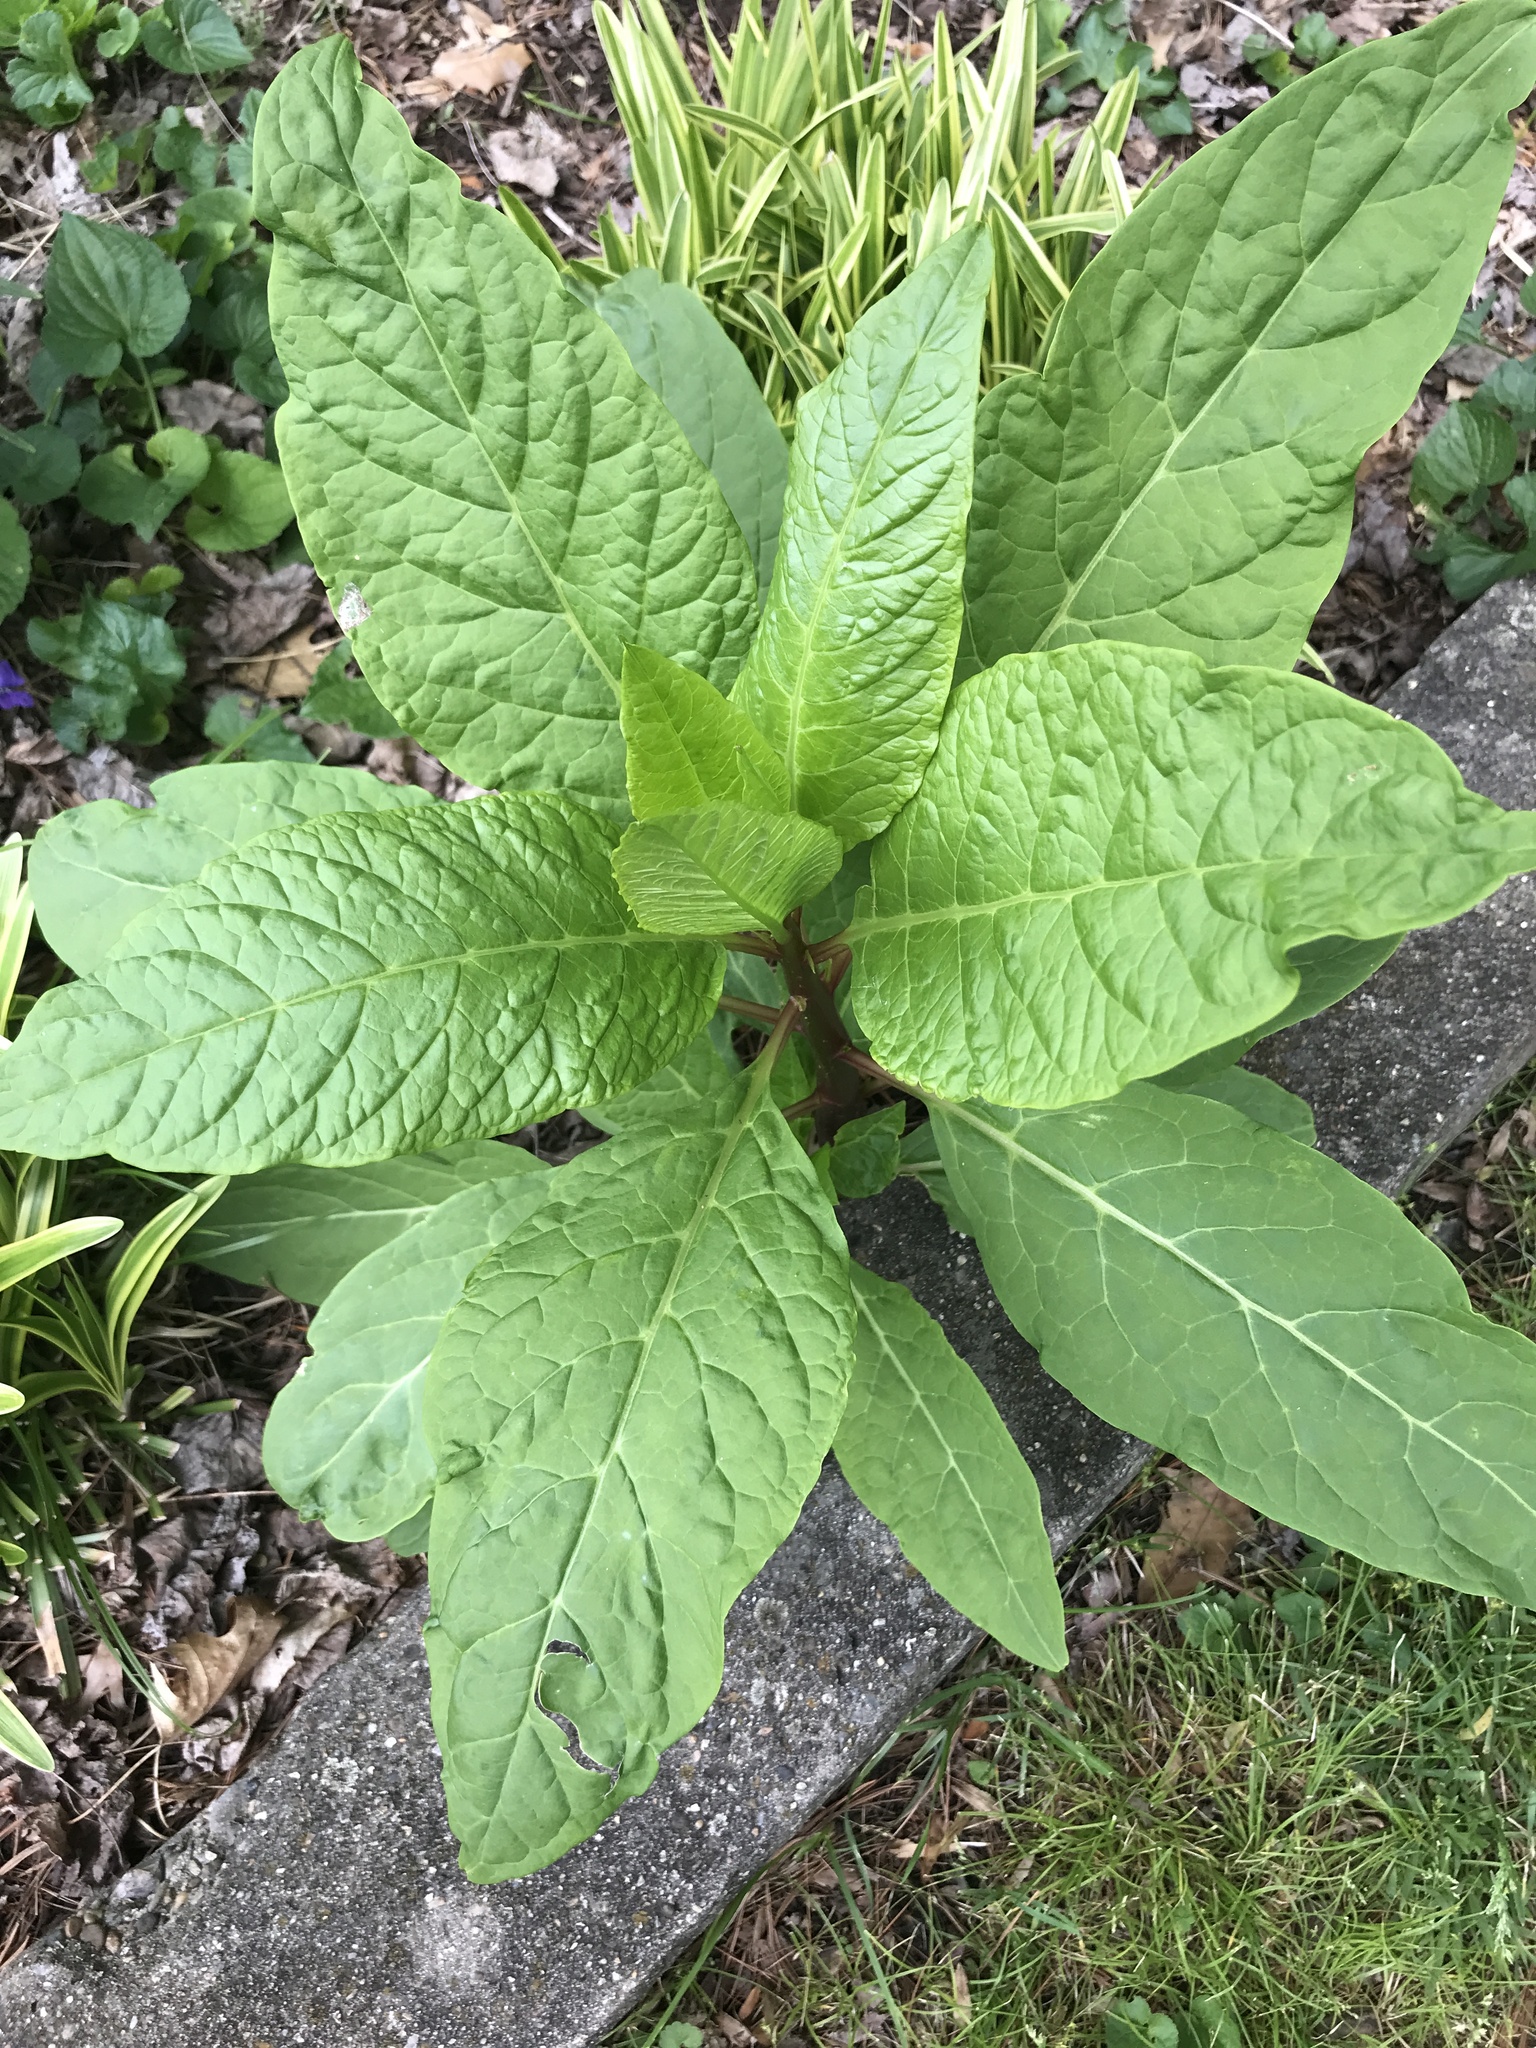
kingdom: Plantae
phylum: Tracheophyta
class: Magnoliopsida
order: Caryophyllales
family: Phytolaccaceae
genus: Phytolacca
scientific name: Phytolacca americana
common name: American pokeweed
